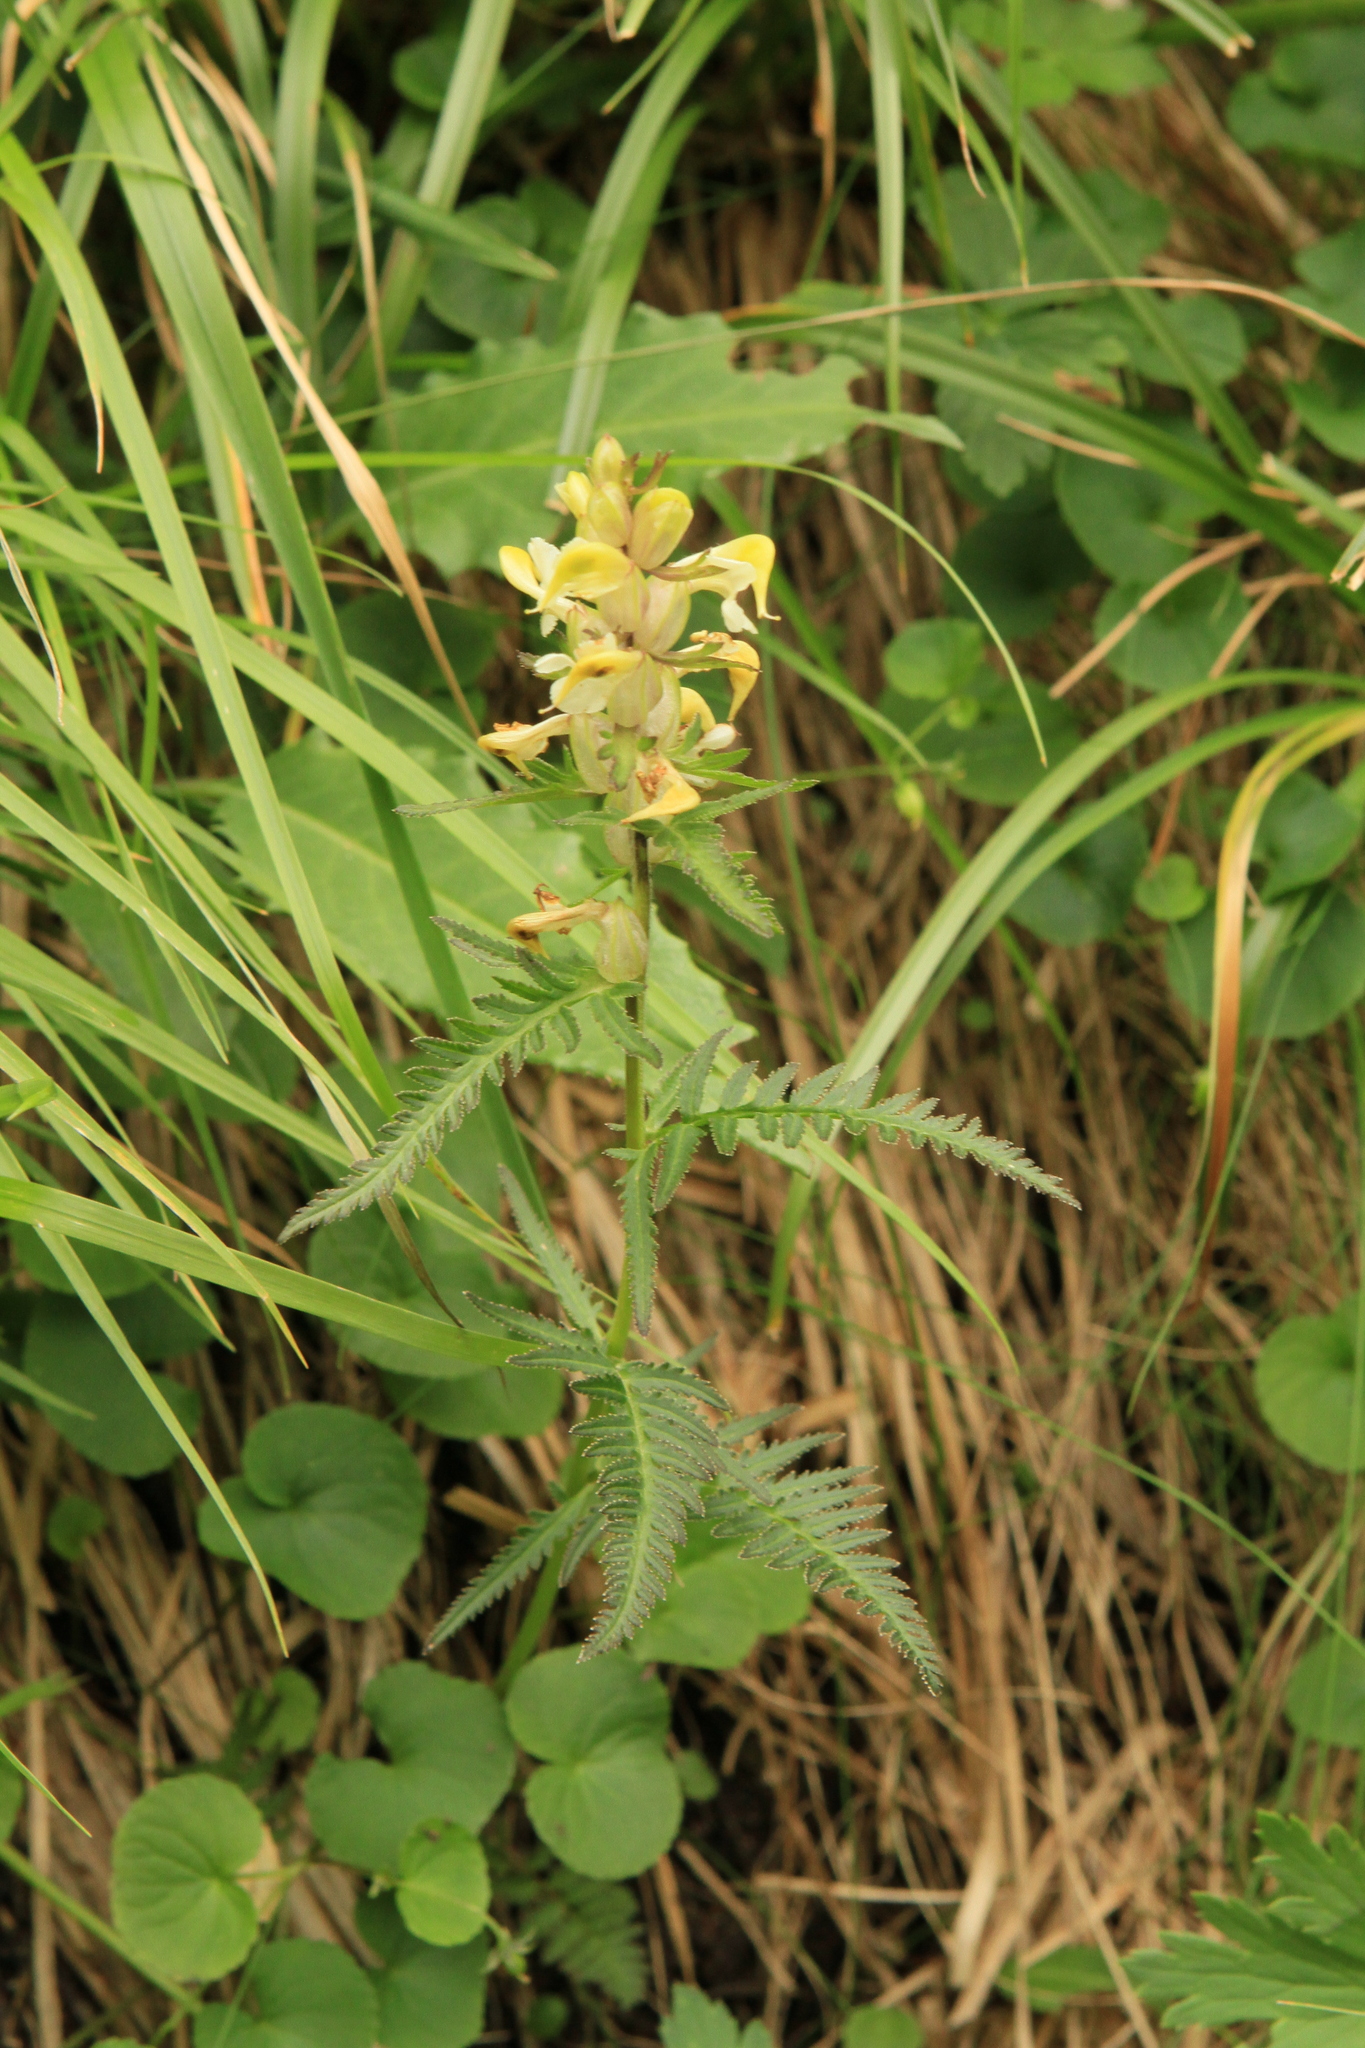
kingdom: Plantae
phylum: Tracheophyta
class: Magnoliopsida
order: Lamiales
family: Orobanchaceae
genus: Pedicularis
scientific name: Pedicularis compacta
